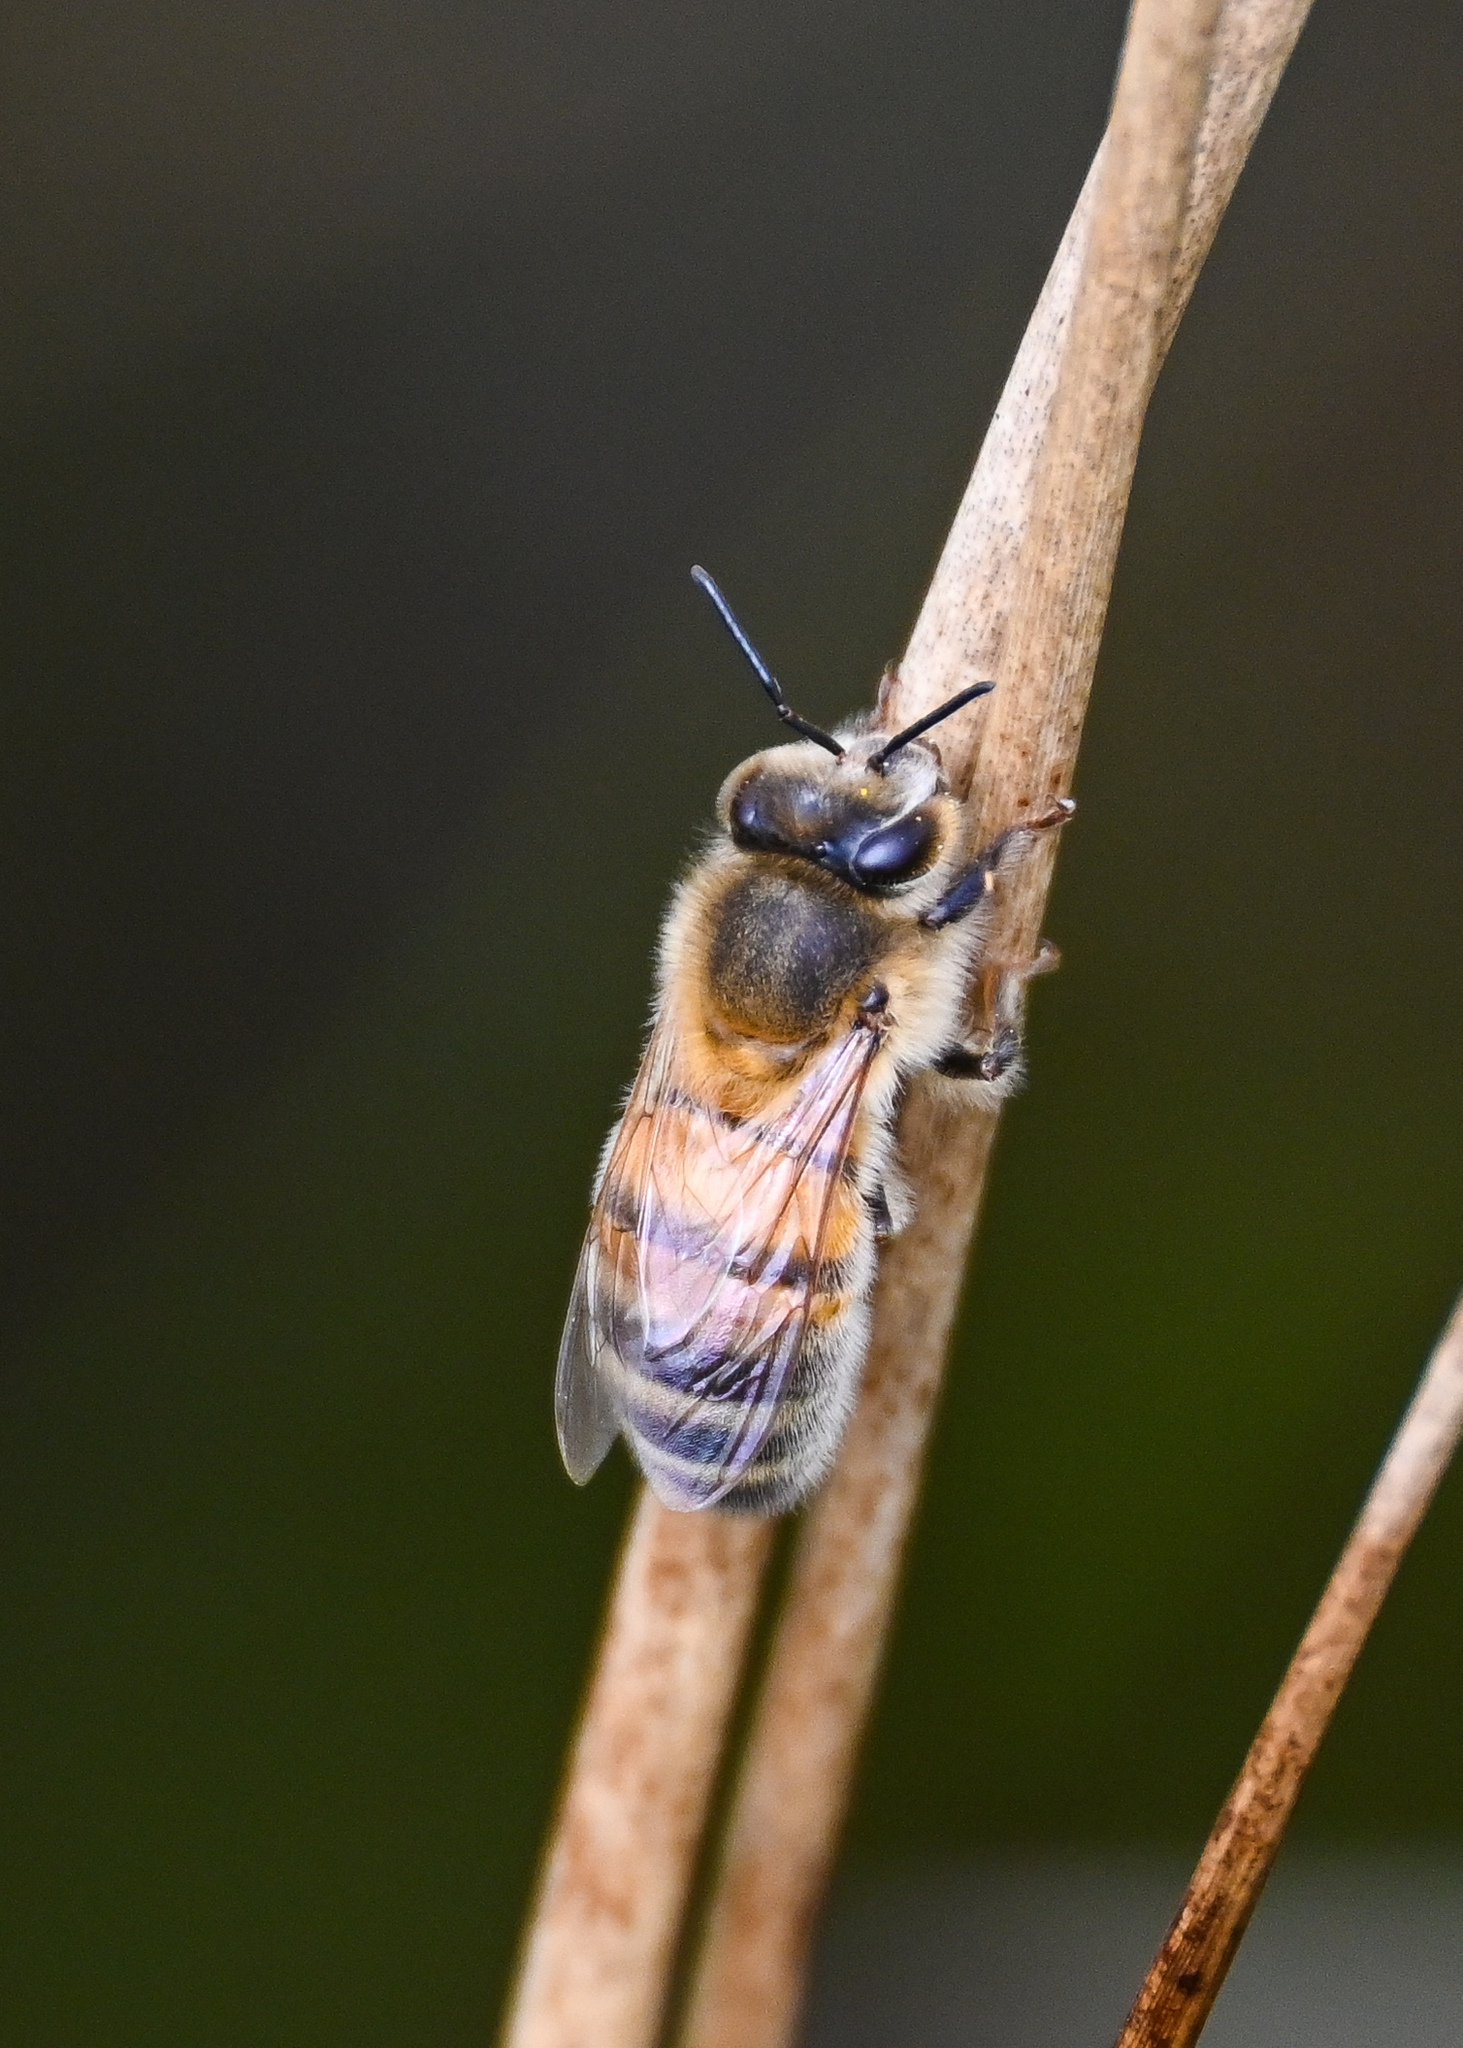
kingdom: Animalia
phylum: Arthropoda
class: Insecta
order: Hymenoptera
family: Apidae
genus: Apis
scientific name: Apis mellifera
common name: Honey bee
